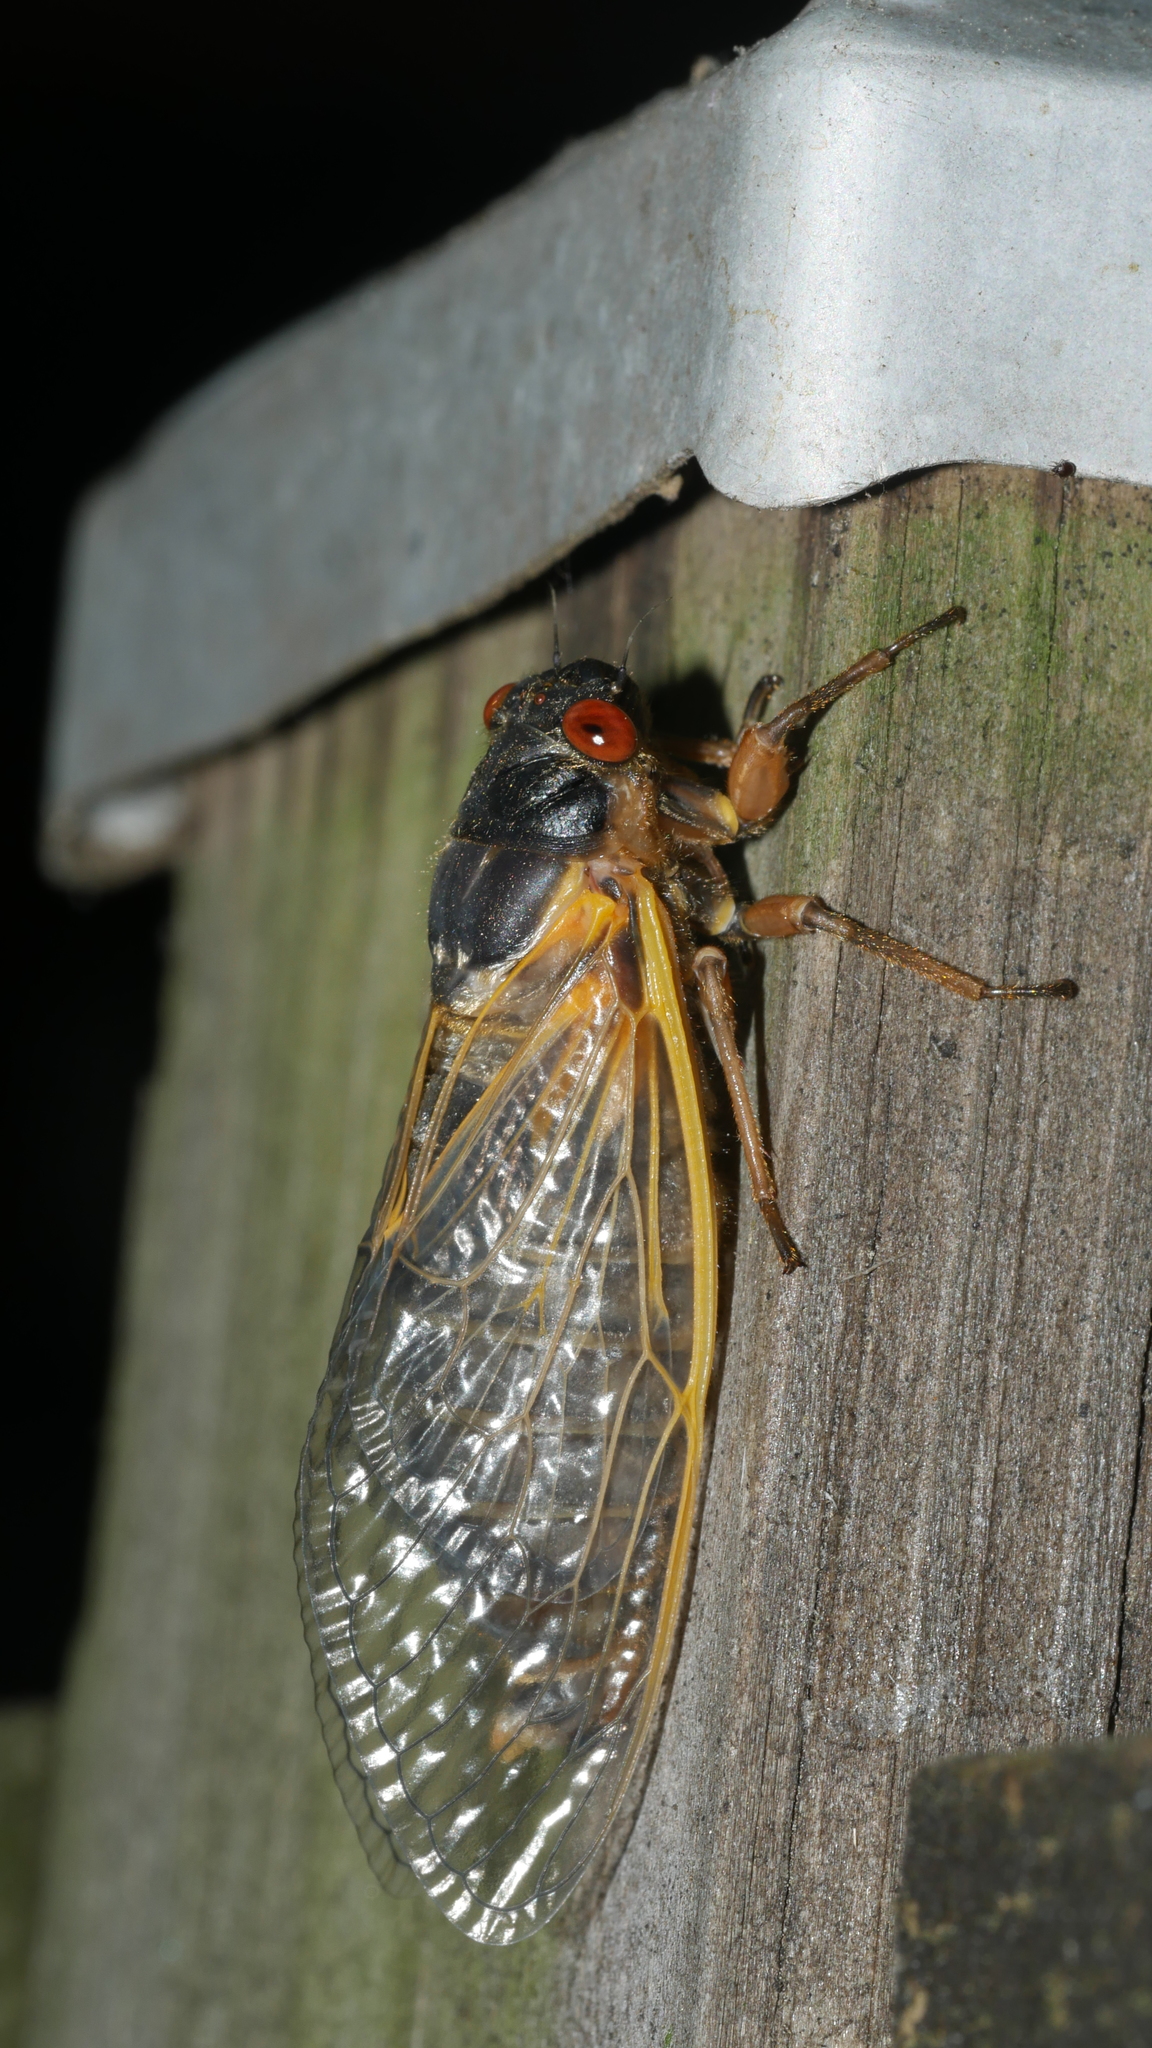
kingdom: Animalia
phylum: Arthropoda
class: Insecta
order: Hemiptera
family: Cicadidae
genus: Magicicada
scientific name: Magicicada septendecim
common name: Periodical cicada
